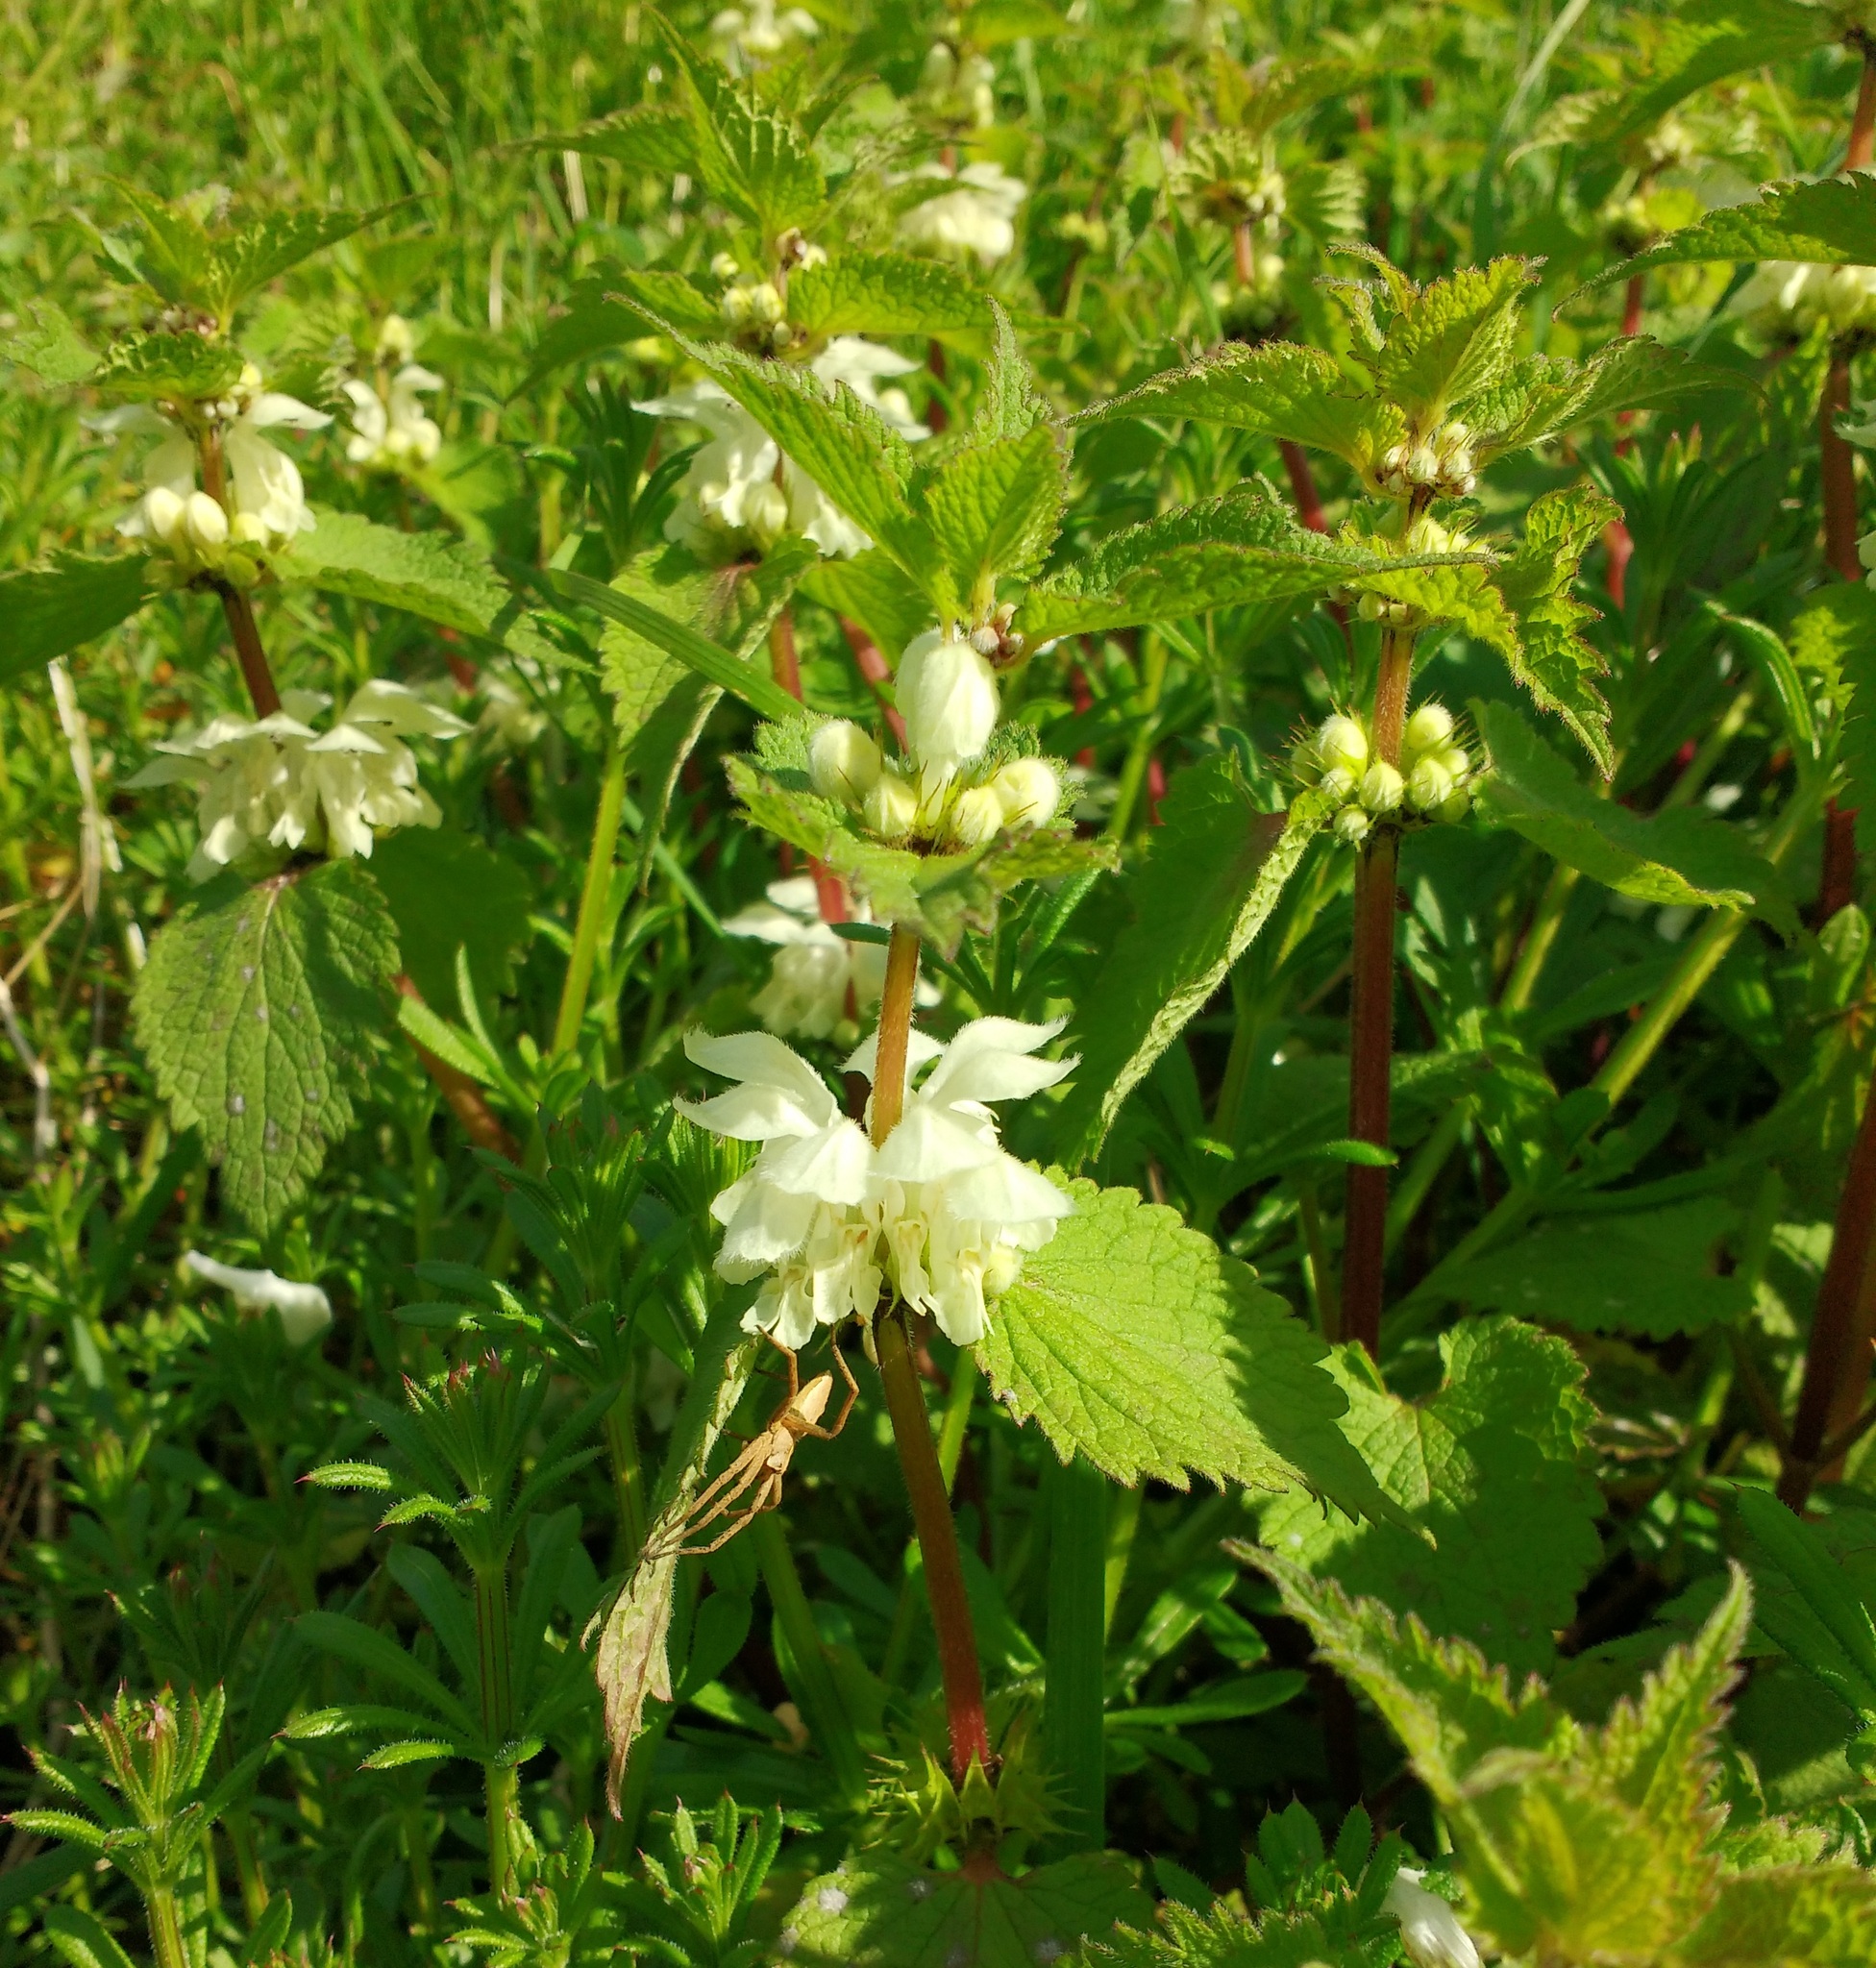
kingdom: Plantae
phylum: Tracheophyta
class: Magnoliopsida
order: Lamiales
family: Lamiaceae
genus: Lamium
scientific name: Lamium album
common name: White dead-nettle
